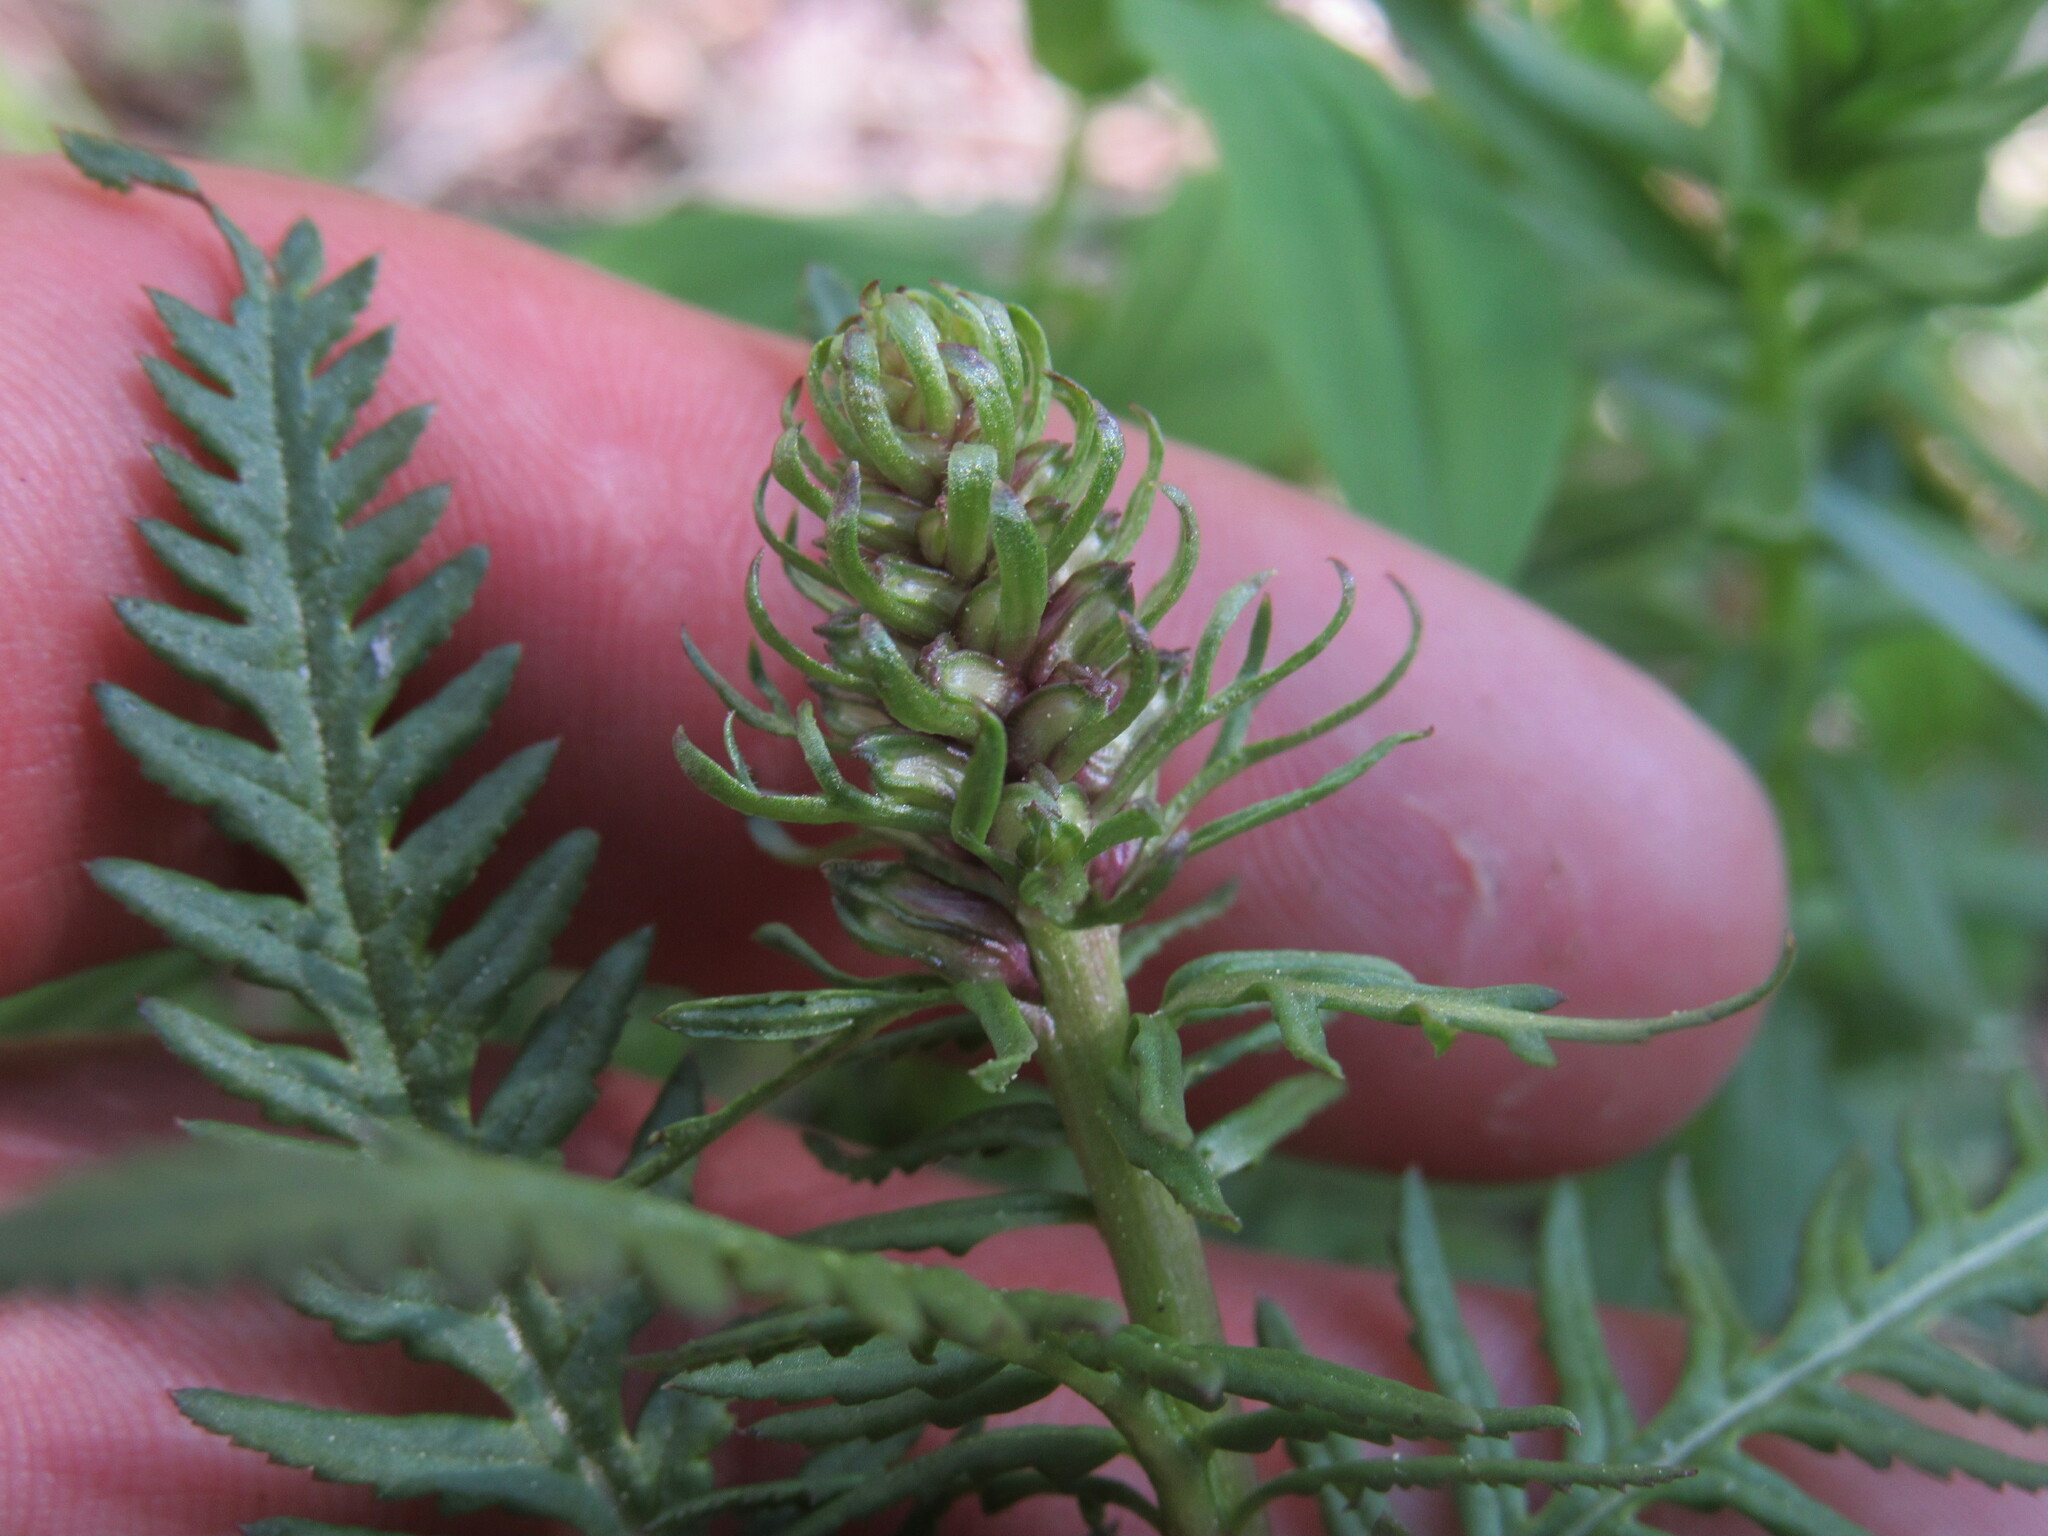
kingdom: Plantae
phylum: Tracheophyta
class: Magnoliopsida
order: Lamiales
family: Orobanchaceae
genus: Pedicularis
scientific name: Pedicularis groenlandica
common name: Elephant's-head
